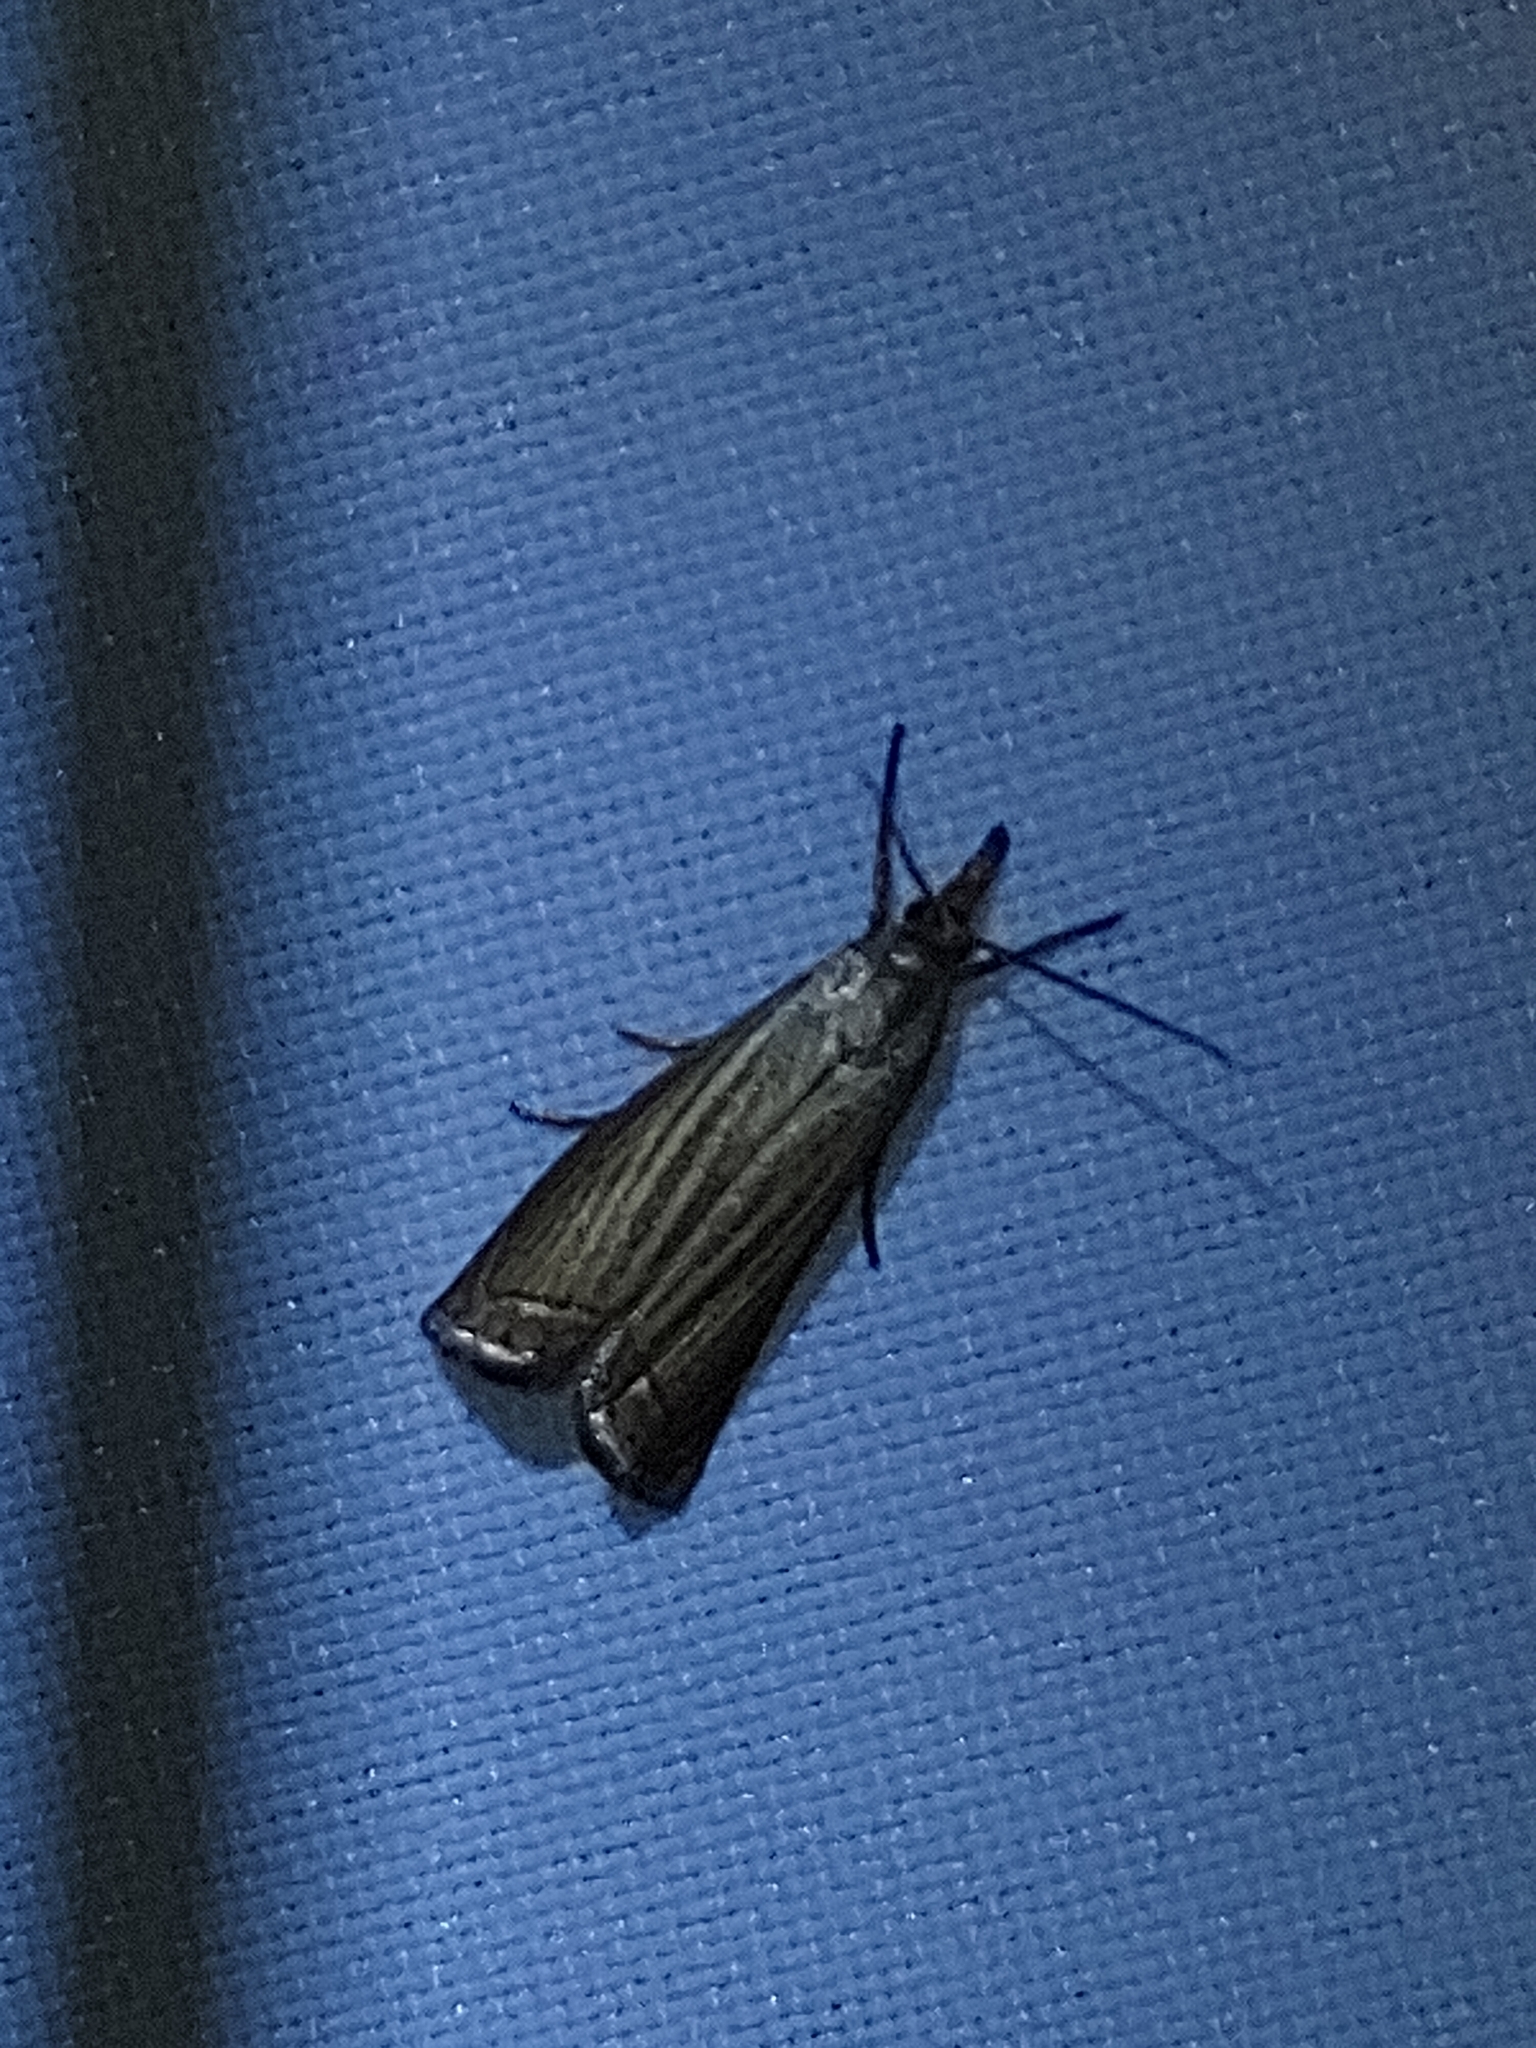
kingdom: Animalia
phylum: Arthropoda
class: Insecta
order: Lepidoptera
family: Crambidae
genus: Chrysoteuchia
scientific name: Chrysoteuchia culmella
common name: Garden grass-veneer
